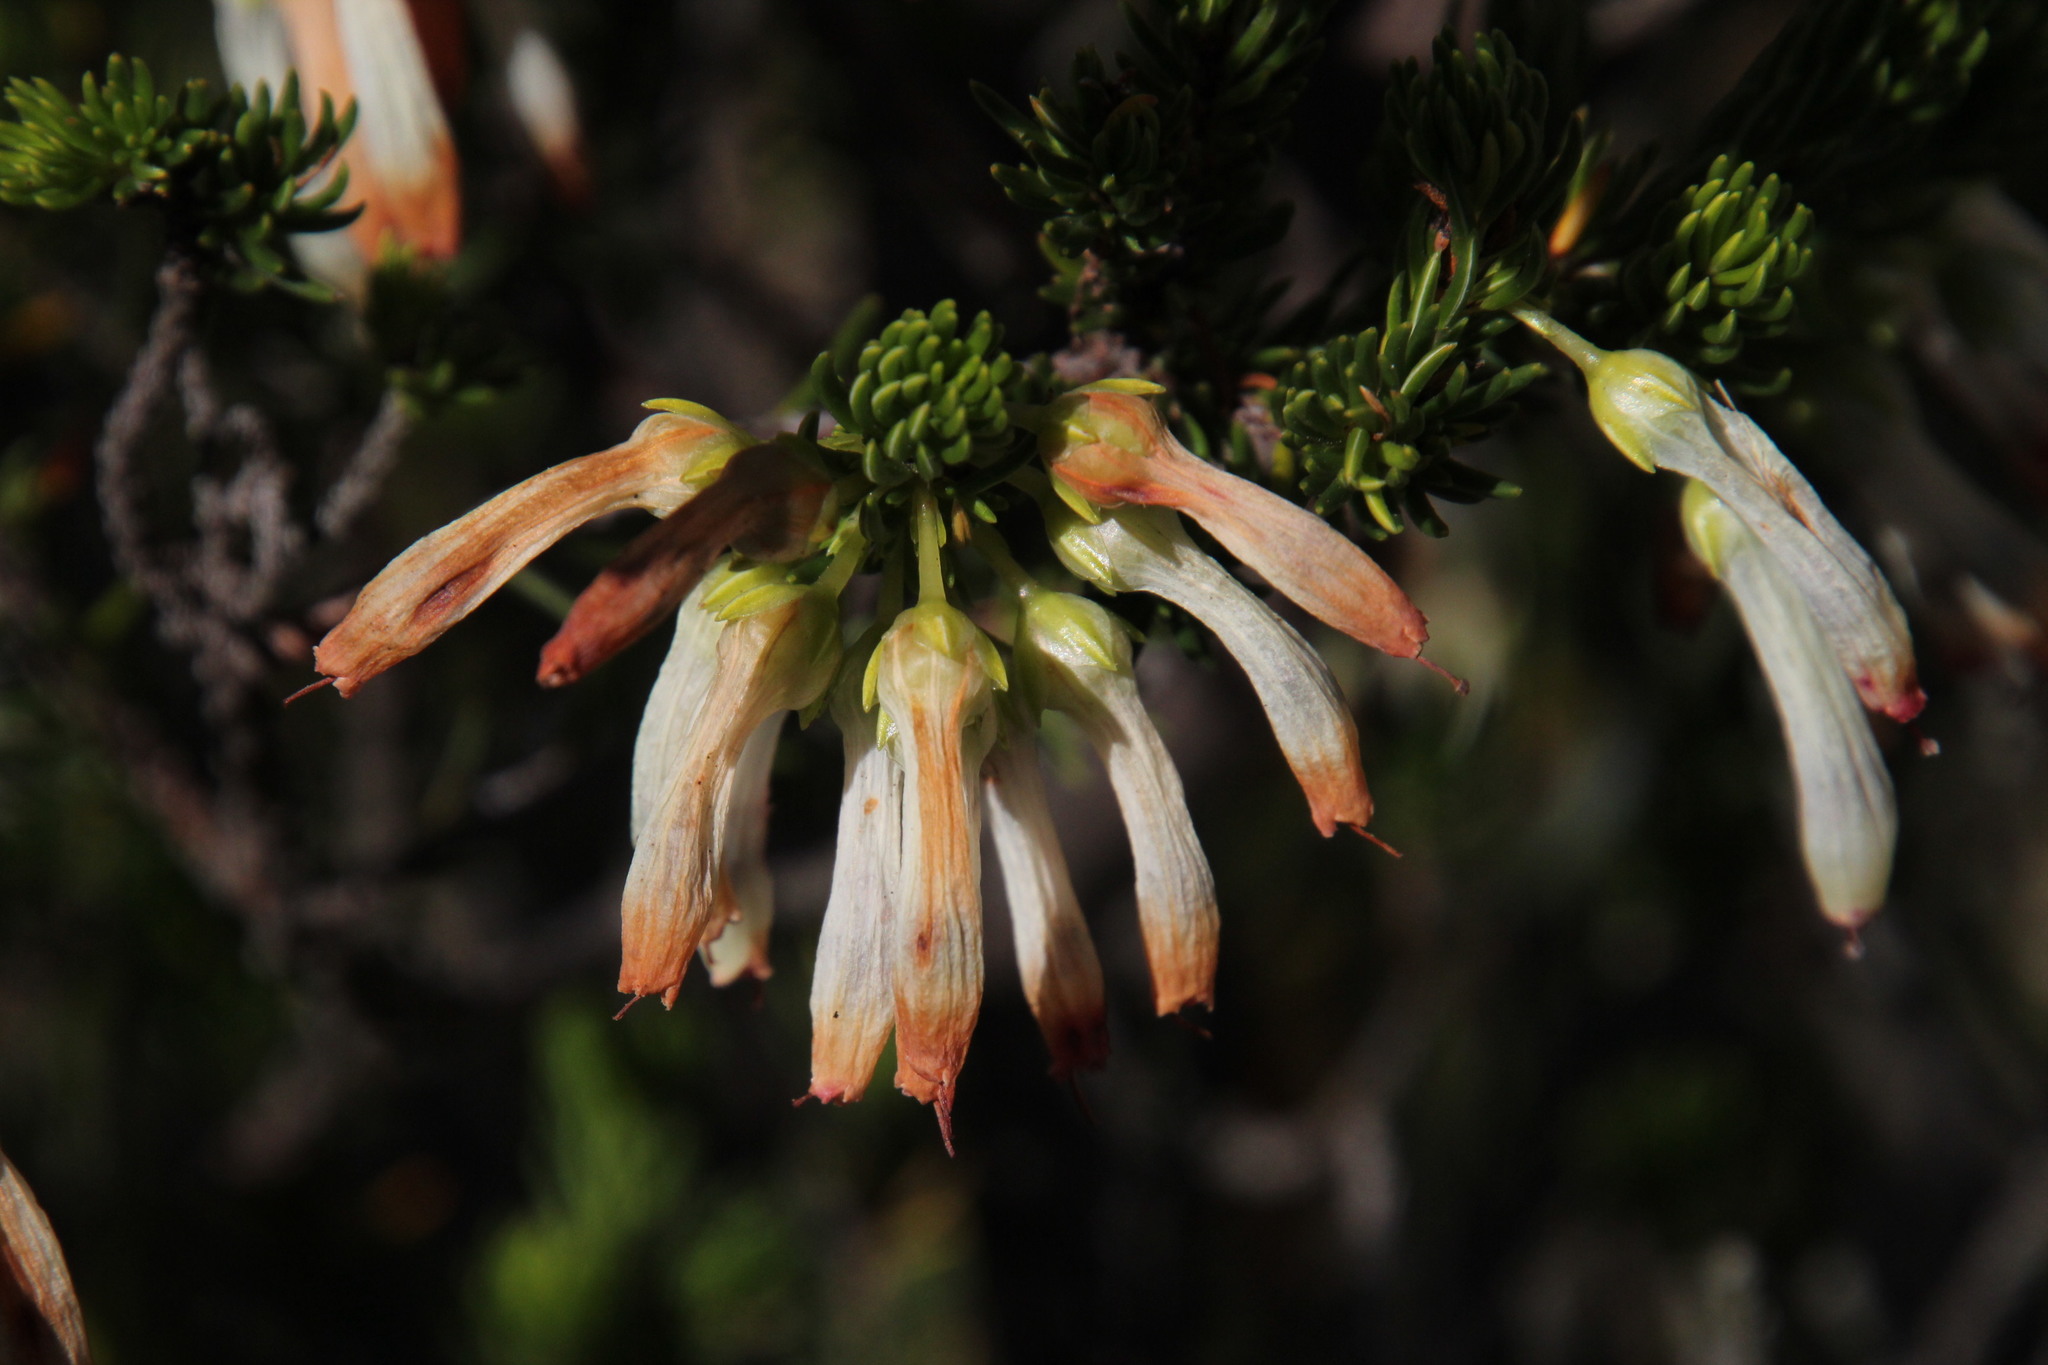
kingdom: Plantae
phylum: Tracheophyta
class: Magnoliopsida
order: Ericales
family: Ericaceae
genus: Erica
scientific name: Erica mammosa
